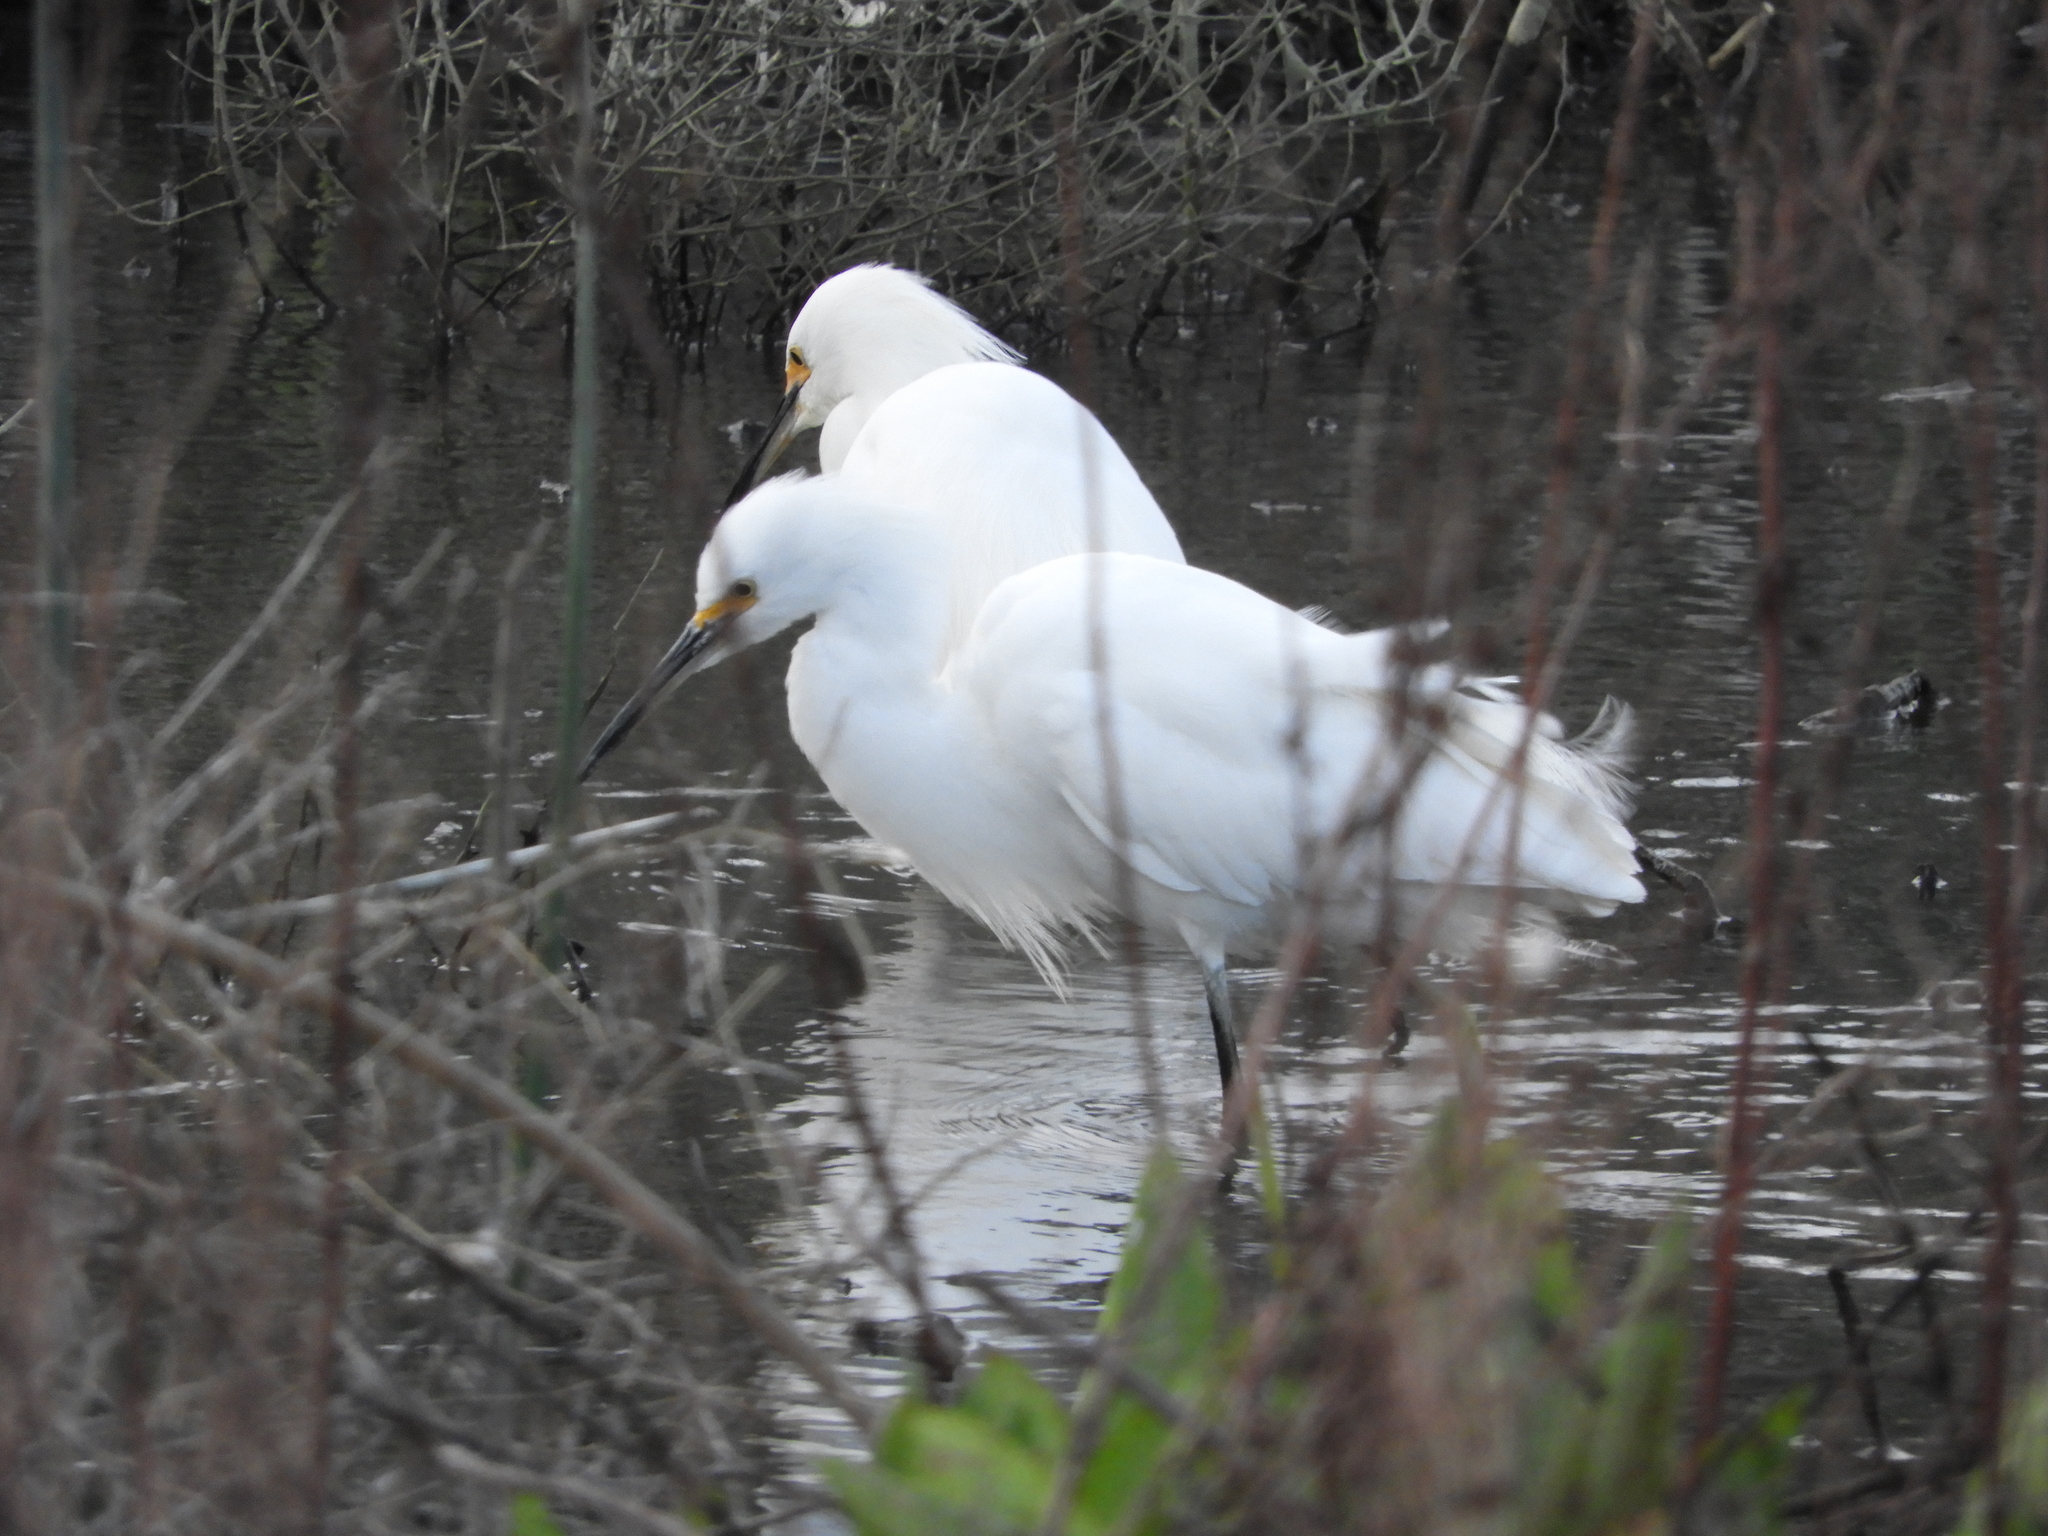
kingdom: Animalia
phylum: Chordata
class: Aves
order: Pelecaniformes
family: Ardeidae
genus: Egretta
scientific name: Egretta thula
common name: Snowy egret
